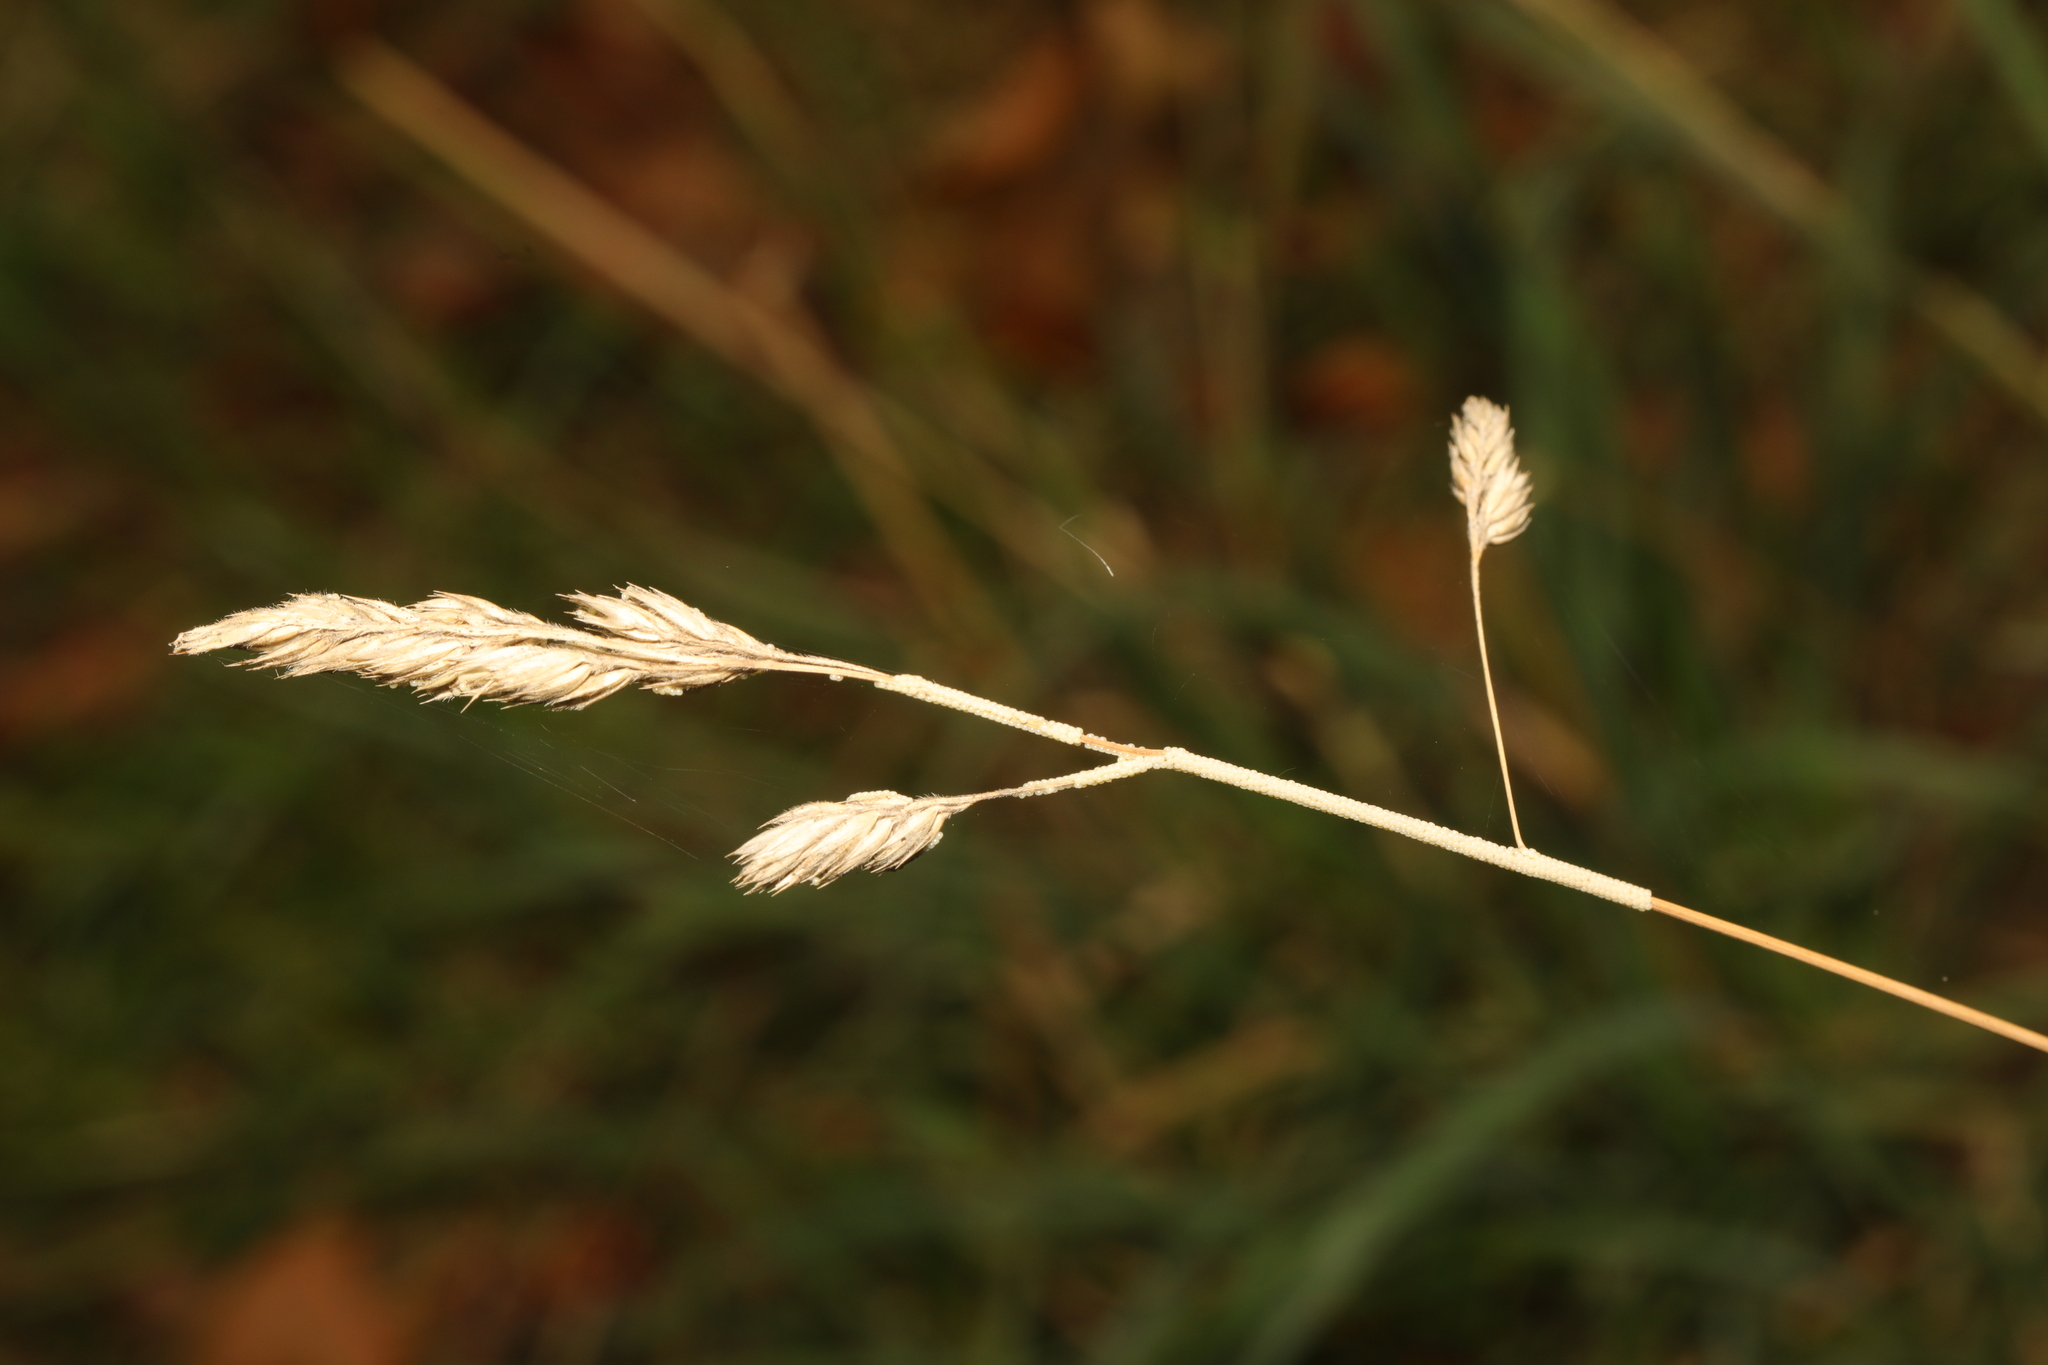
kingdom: Plantae
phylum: Tracheophyta
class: Liliopsida
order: Poales
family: Poaceae
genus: Dactylis
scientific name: Dactylis glomerata
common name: Orchardgrass
